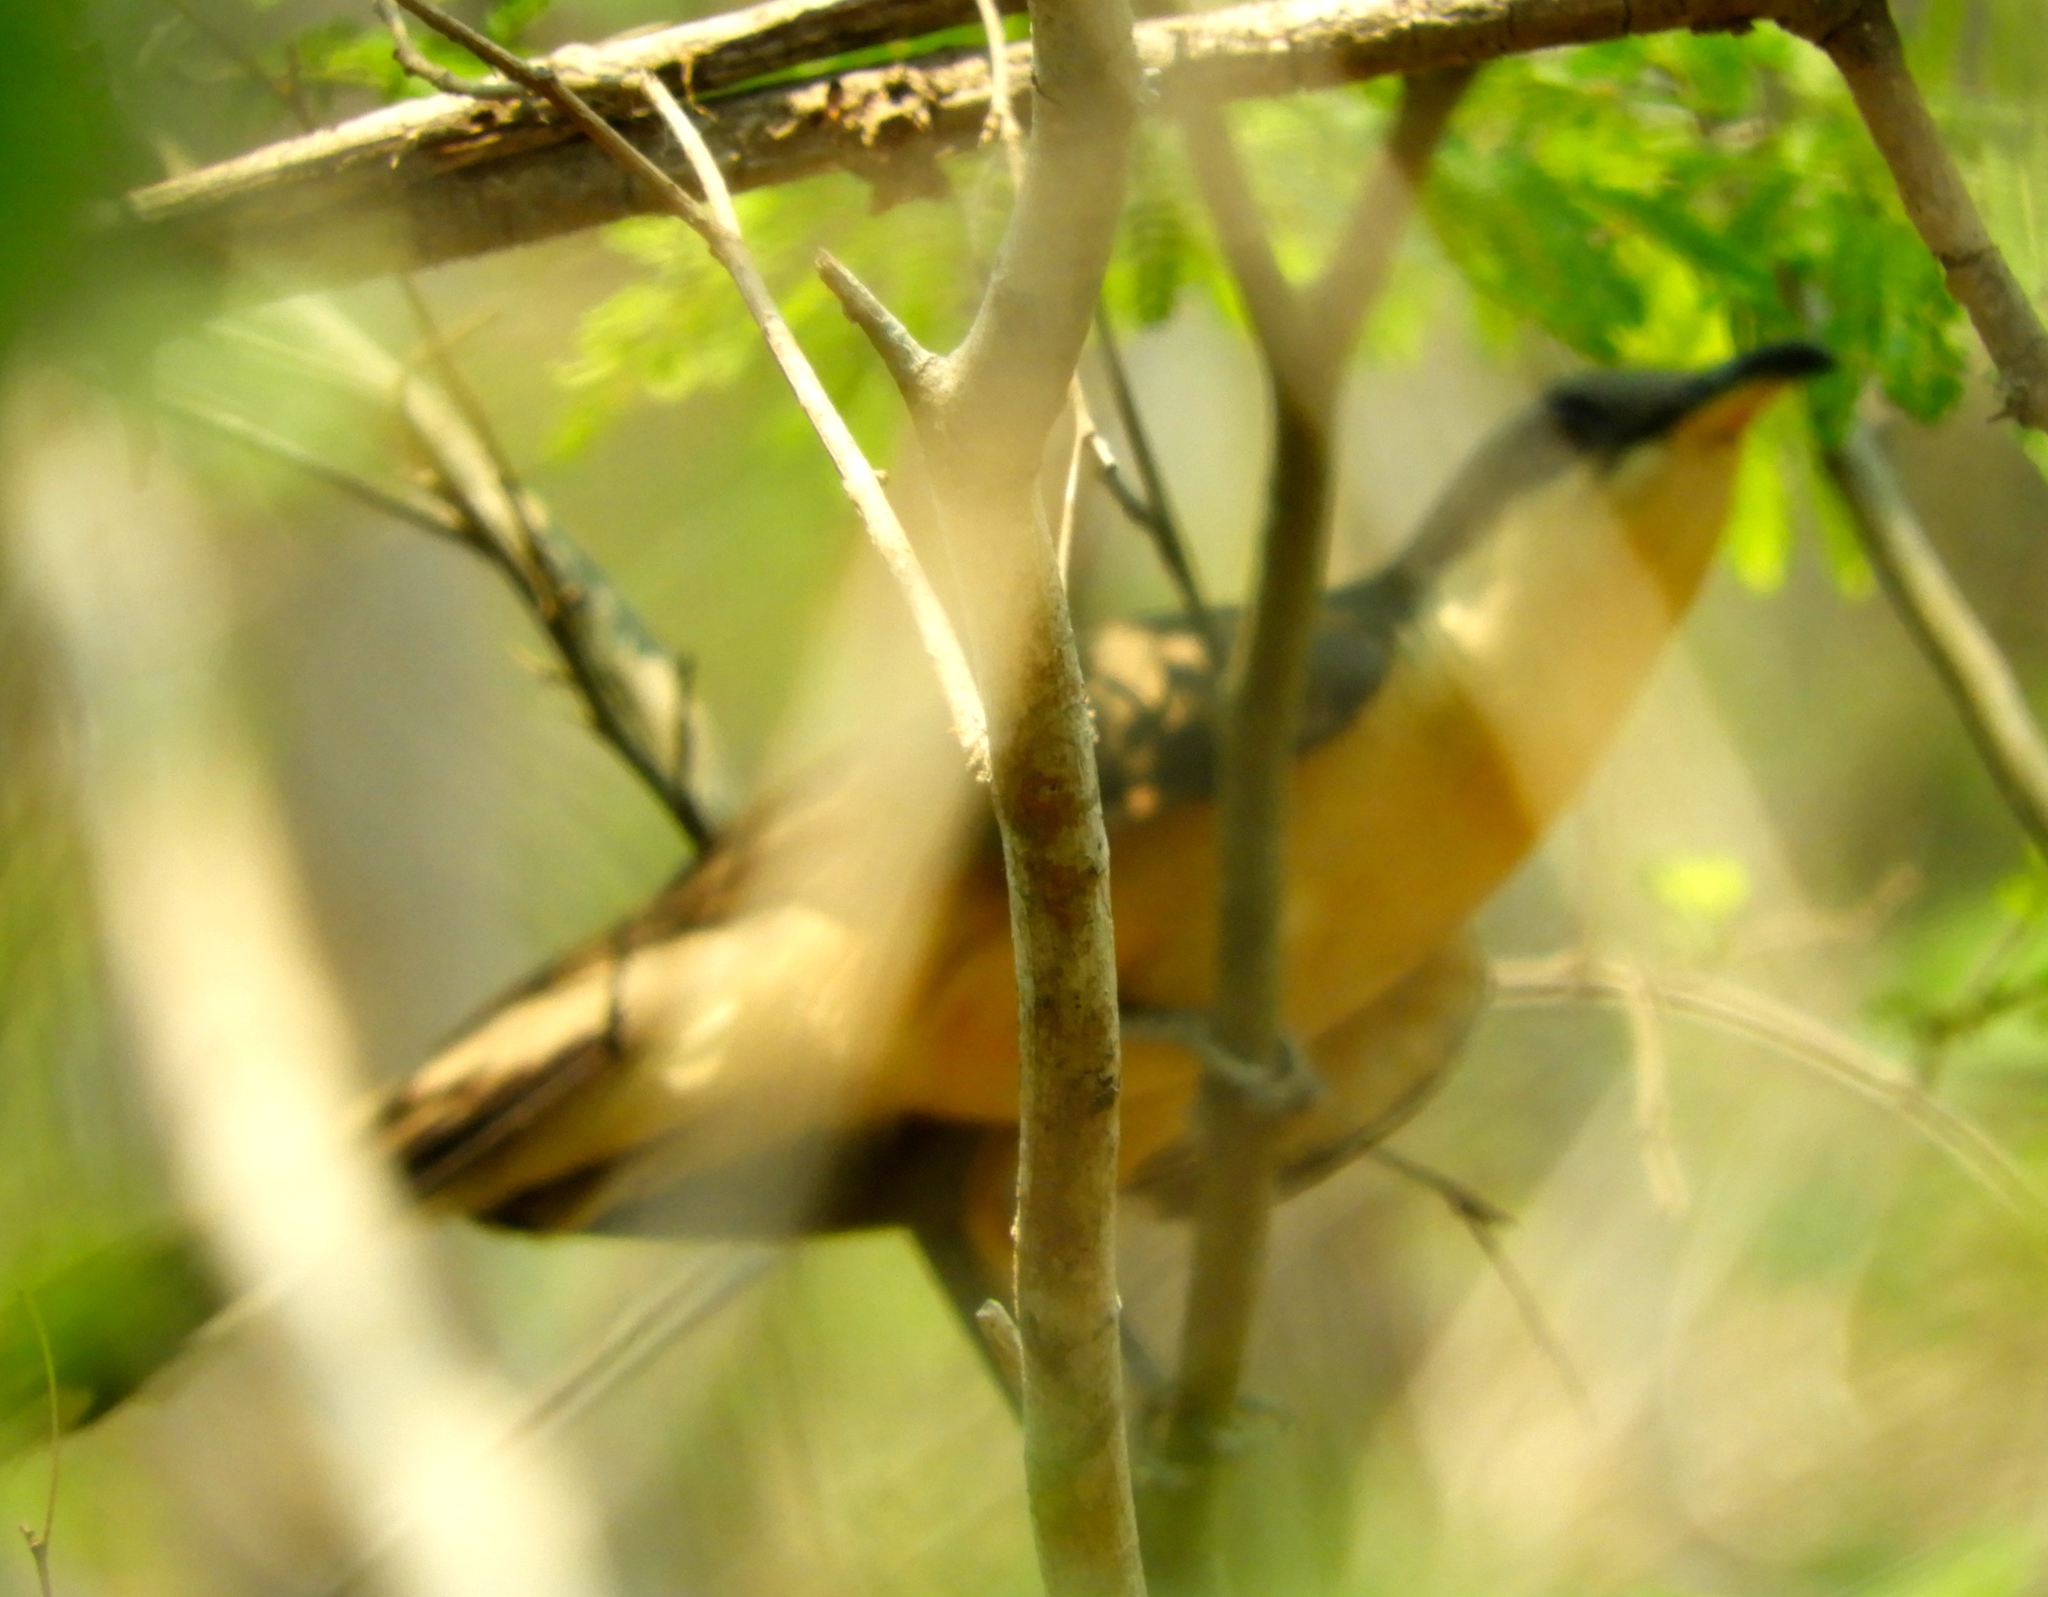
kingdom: Animalia
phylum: Chordata
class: Aves
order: Cuculiformes
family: Cuculidae
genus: Coccyzus
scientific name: Coccyzus minor
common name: Mangrove cuckoo
